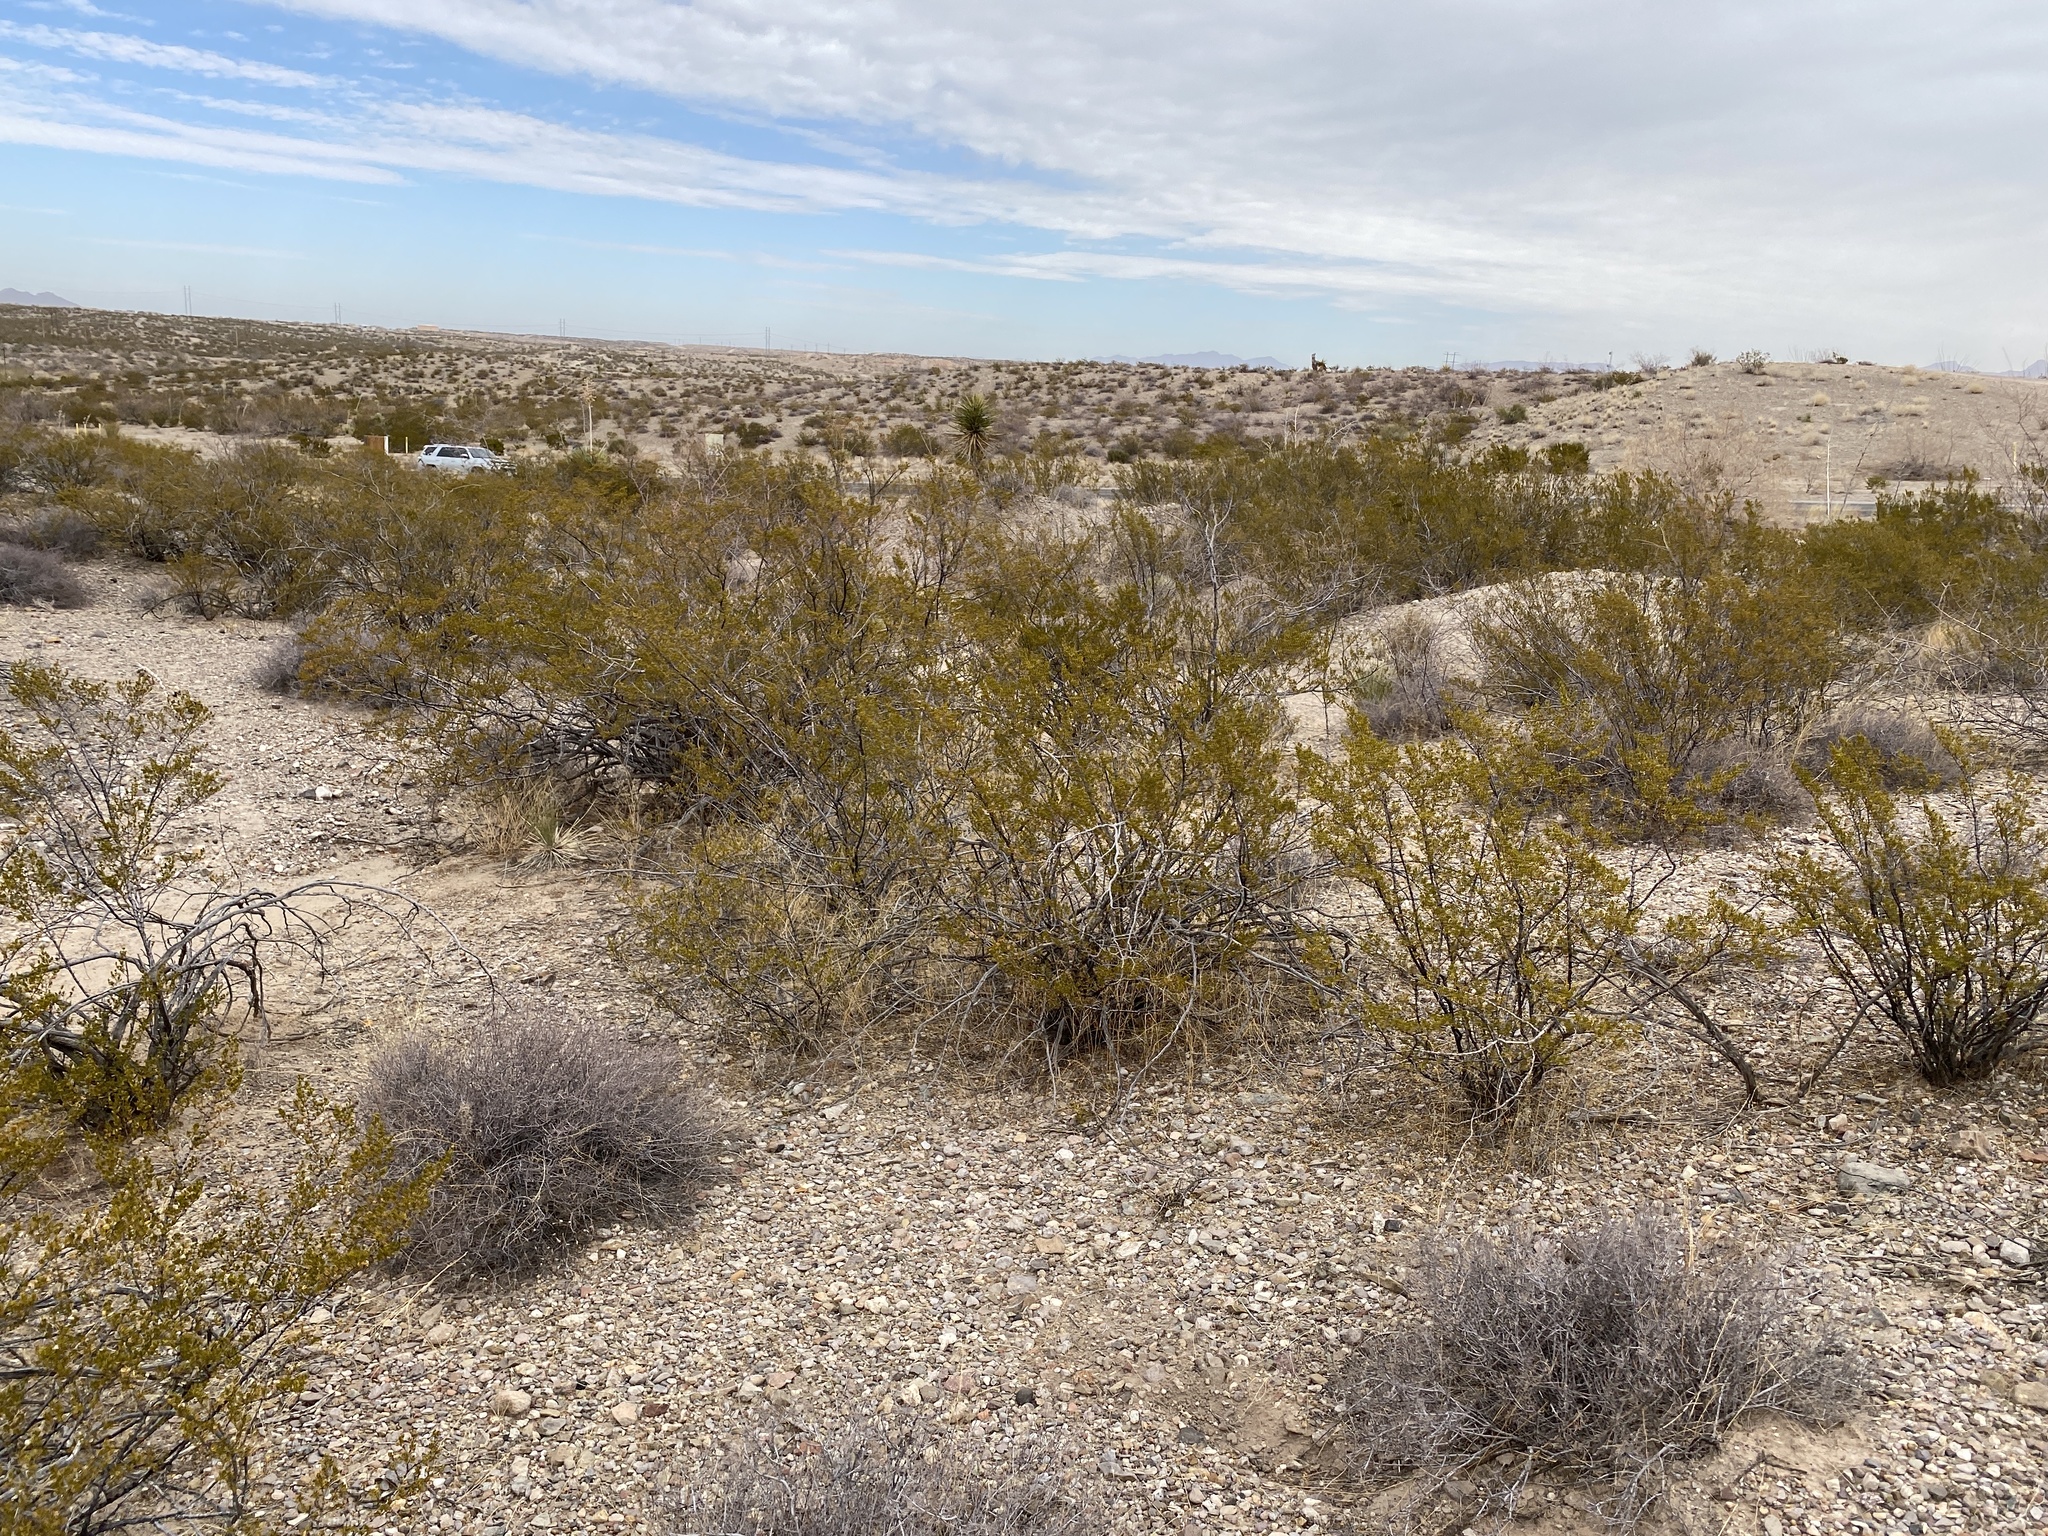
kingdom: Plantae
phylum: Tracheophyta
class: Magnoliopsida
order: Zygophyllales
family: Zygophyllaceae
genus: Larrea
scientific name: Larrea tridentata
